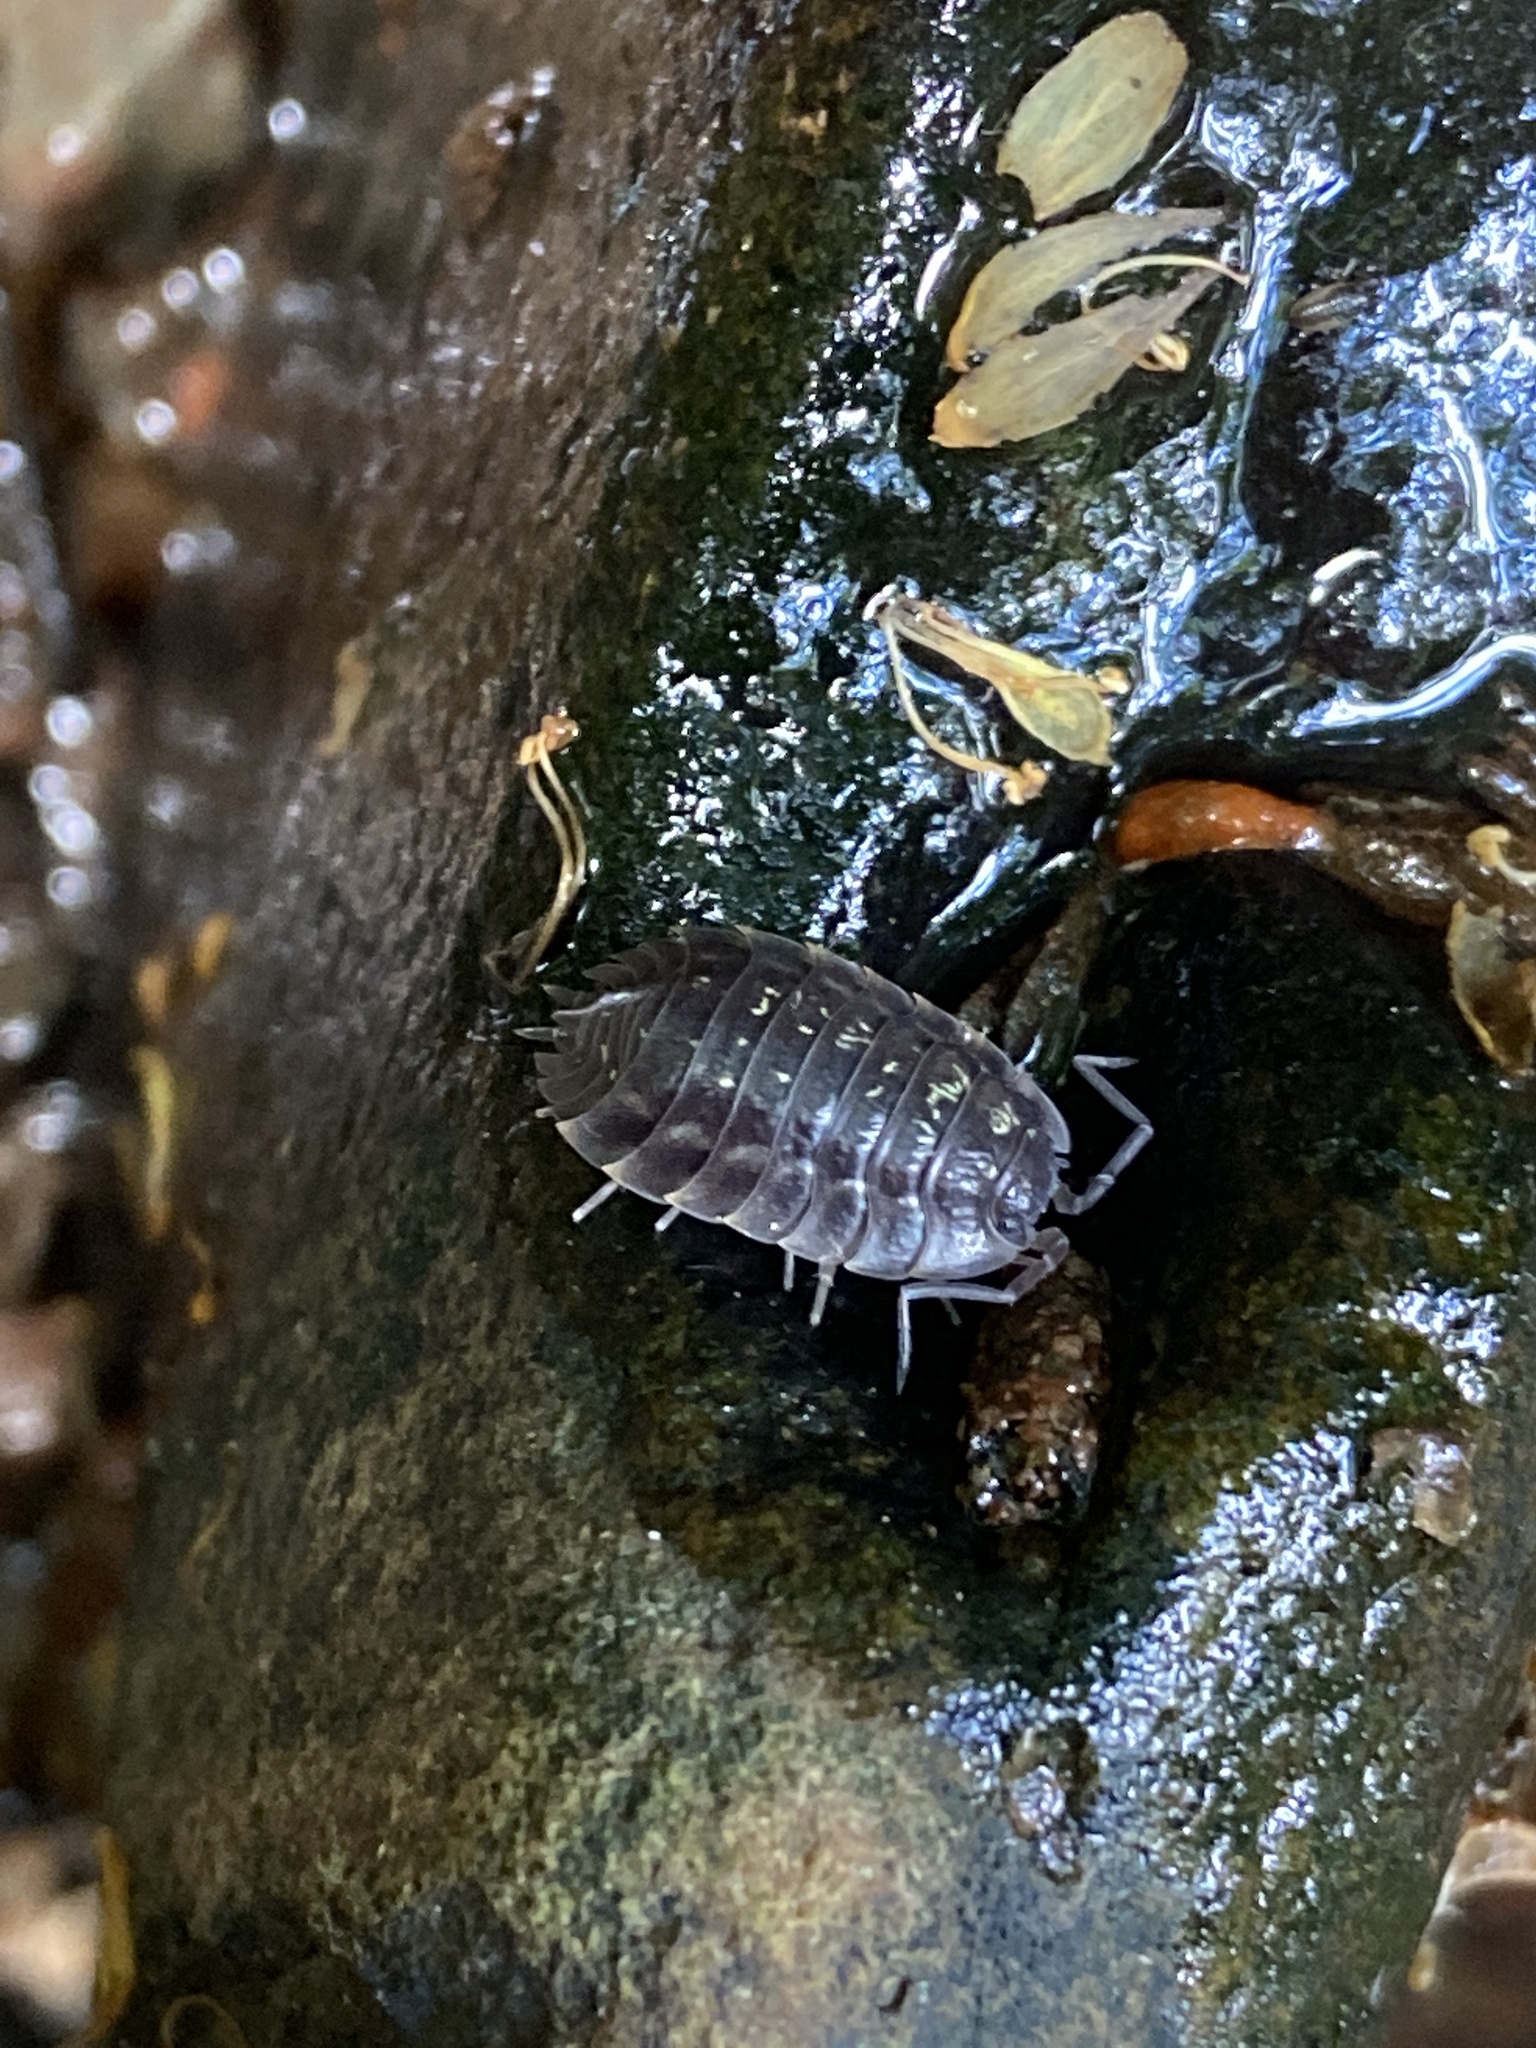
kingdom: Animalia
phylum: Arthropoda
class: Malacostraca
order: Isopoda
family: Oniscidae
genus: Oniscus
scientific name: Oniscus asellus
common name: Common shiny woodlouse
